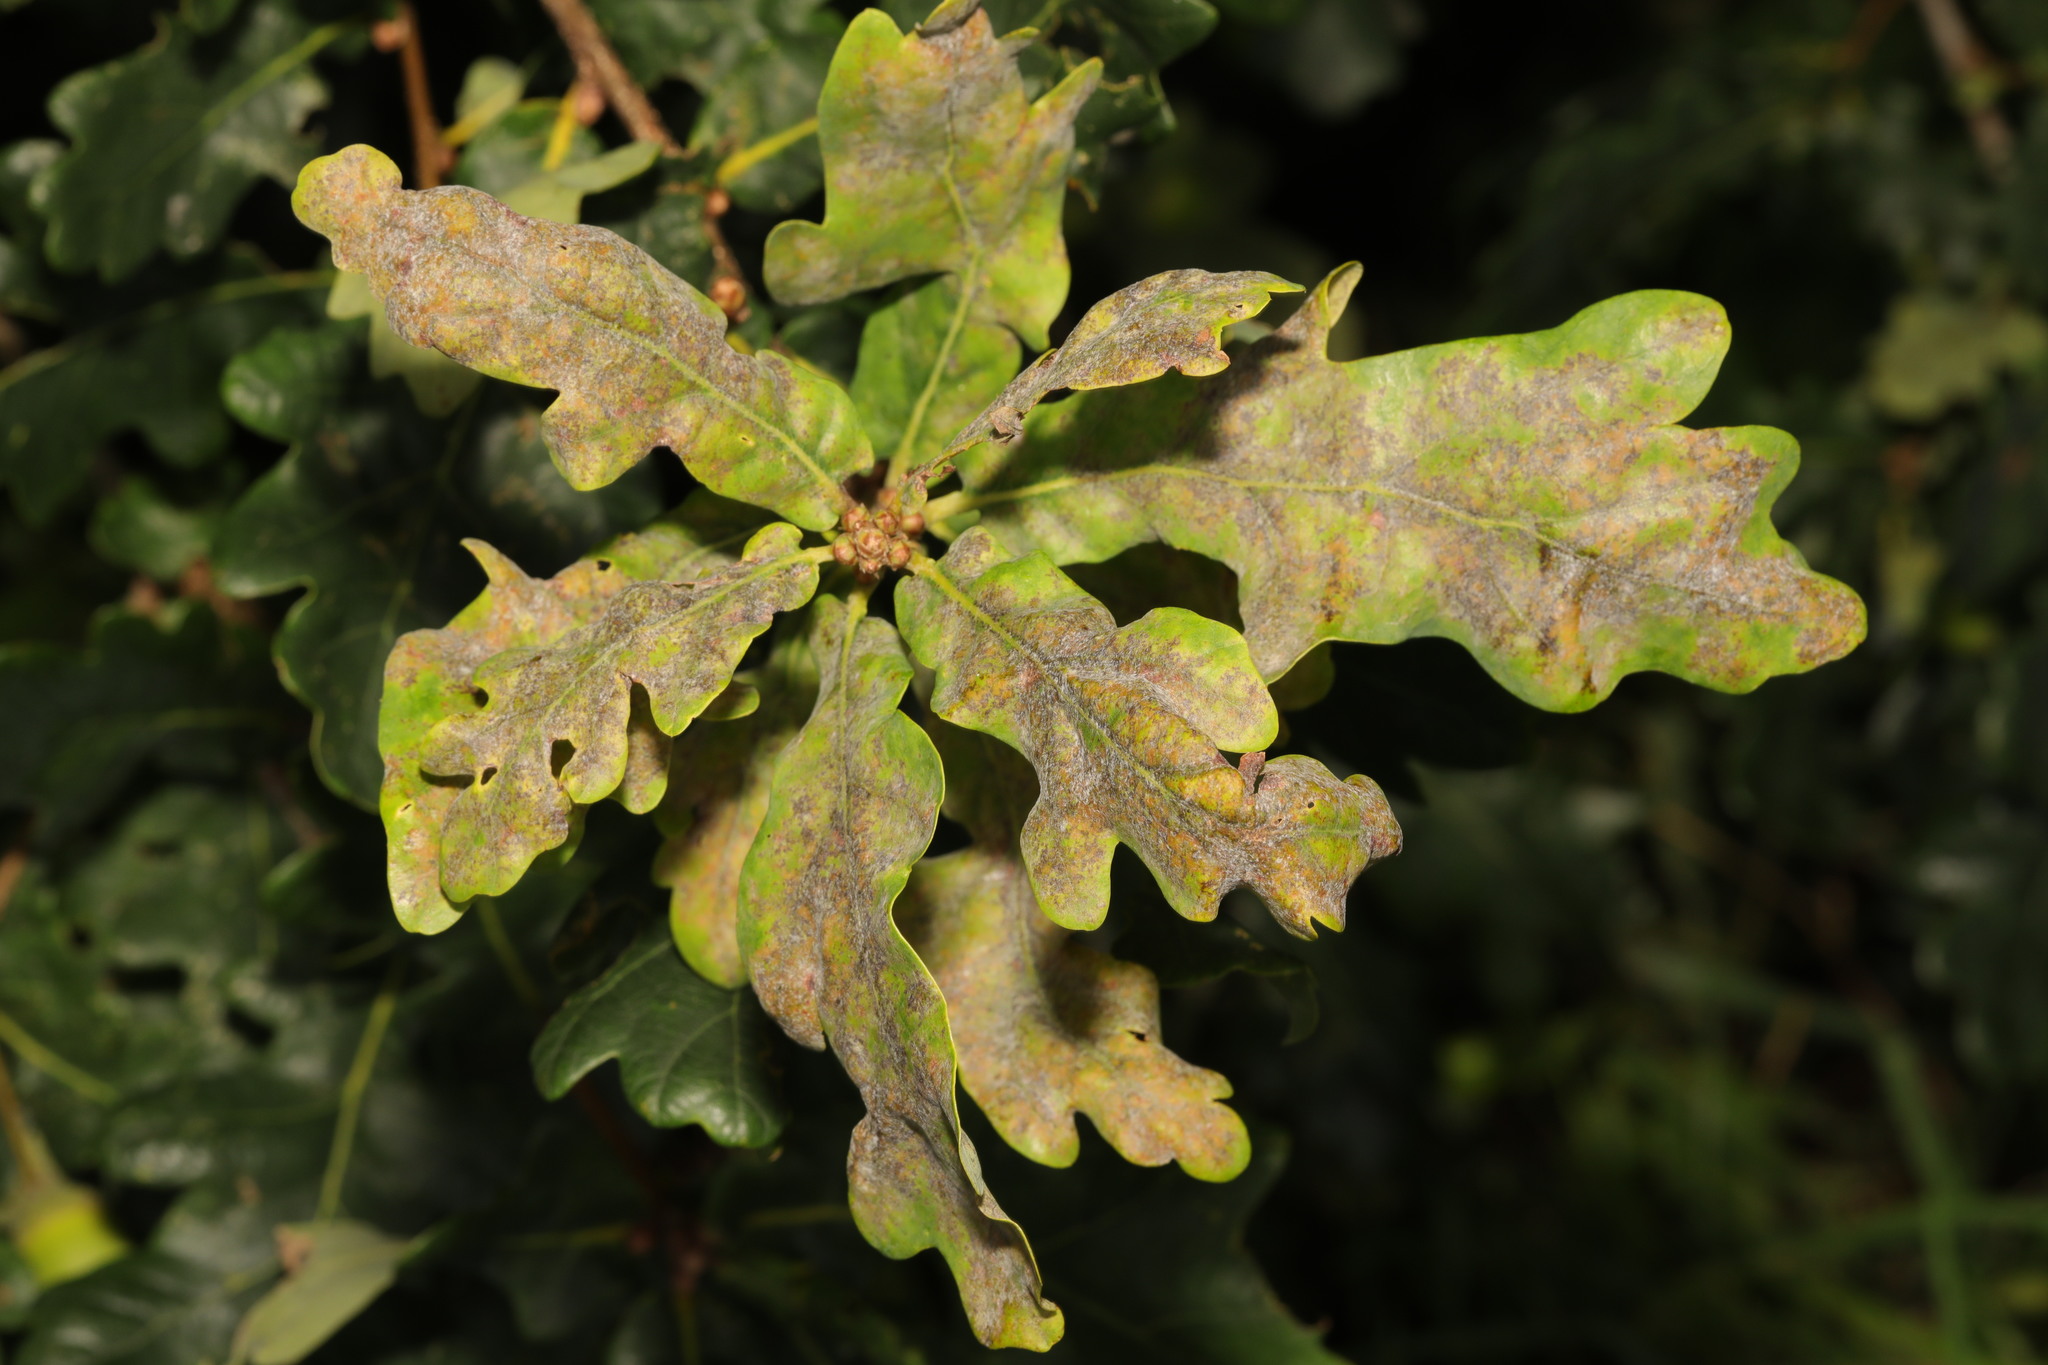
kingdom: Fungi
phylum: Ascomycota
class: Leotiomycetes
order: Helotiales
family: Erysiphaceae
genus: Erysiphe
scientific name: Erysiphe alphitoides
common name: Oak mildew
